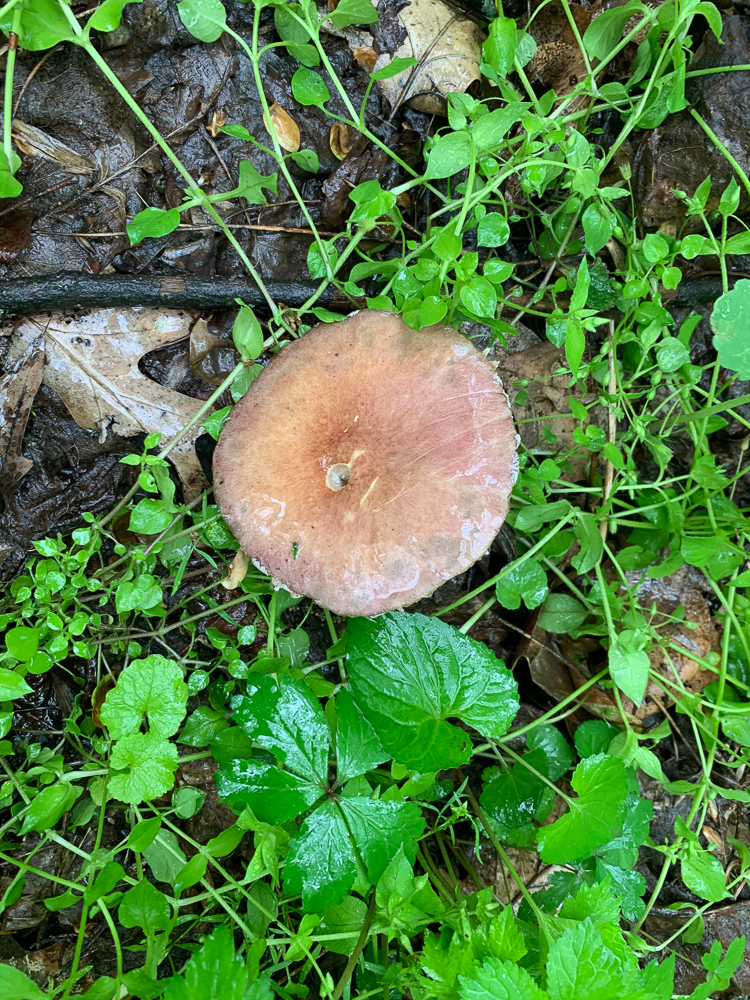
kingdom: Fungi
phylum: Basidiomycota
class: Agaricomycetes
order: Agaricales
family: Strophariaceae
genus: Stropharia
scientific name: Stropharia rugosoannulata
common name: Wine roundhead
